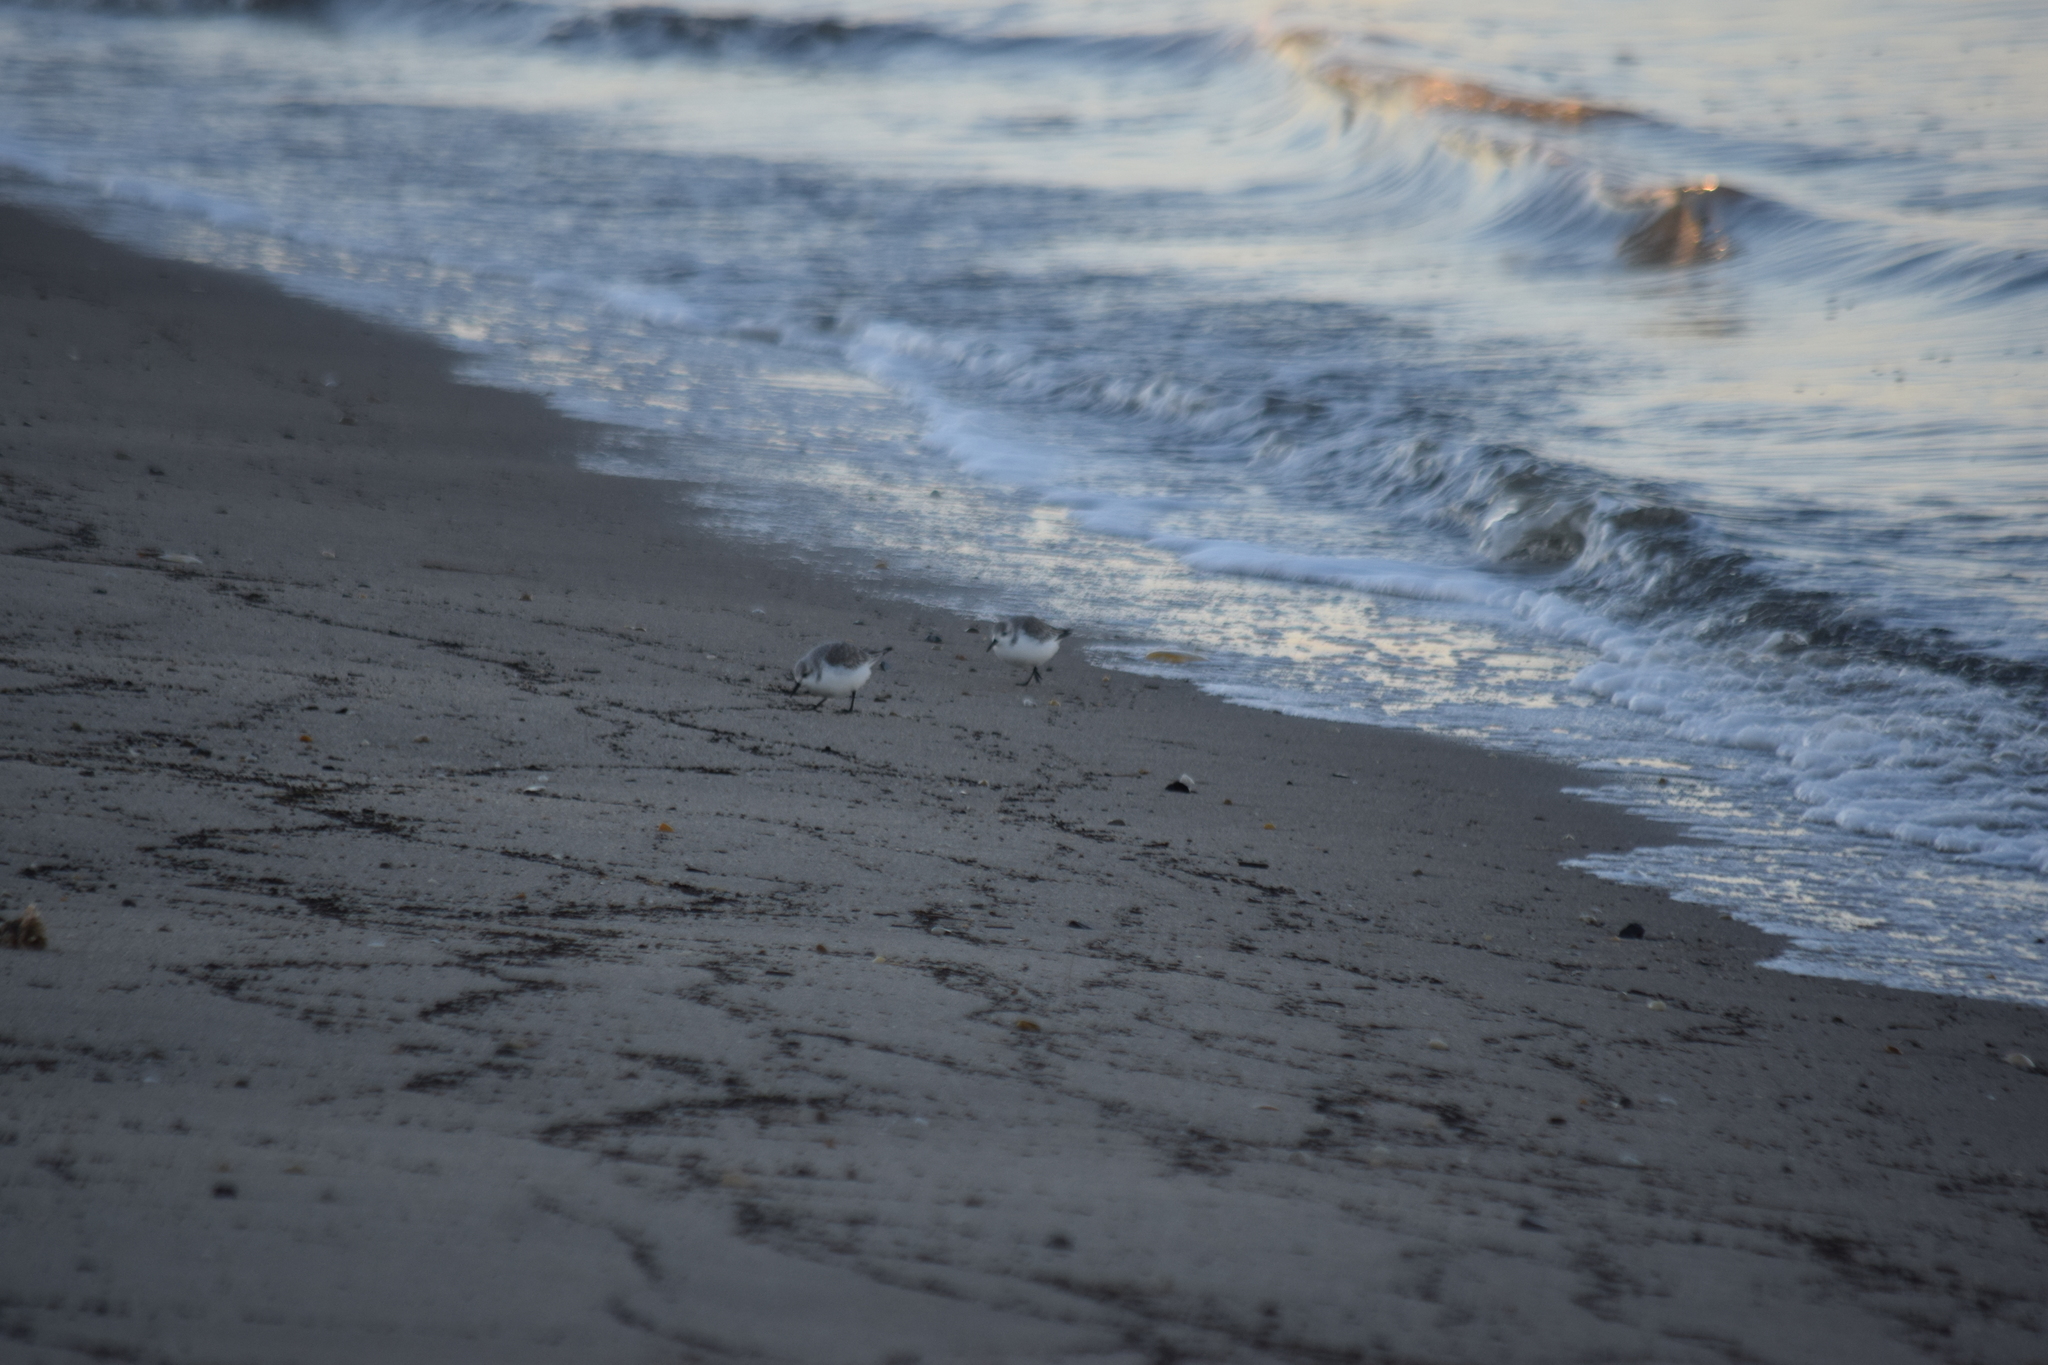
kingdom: Animalia
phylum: Chordata
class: Aves
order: Charadriiformes
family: Scolopacidae
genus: Calidris
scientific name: Calidris alba
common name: Sanderling
